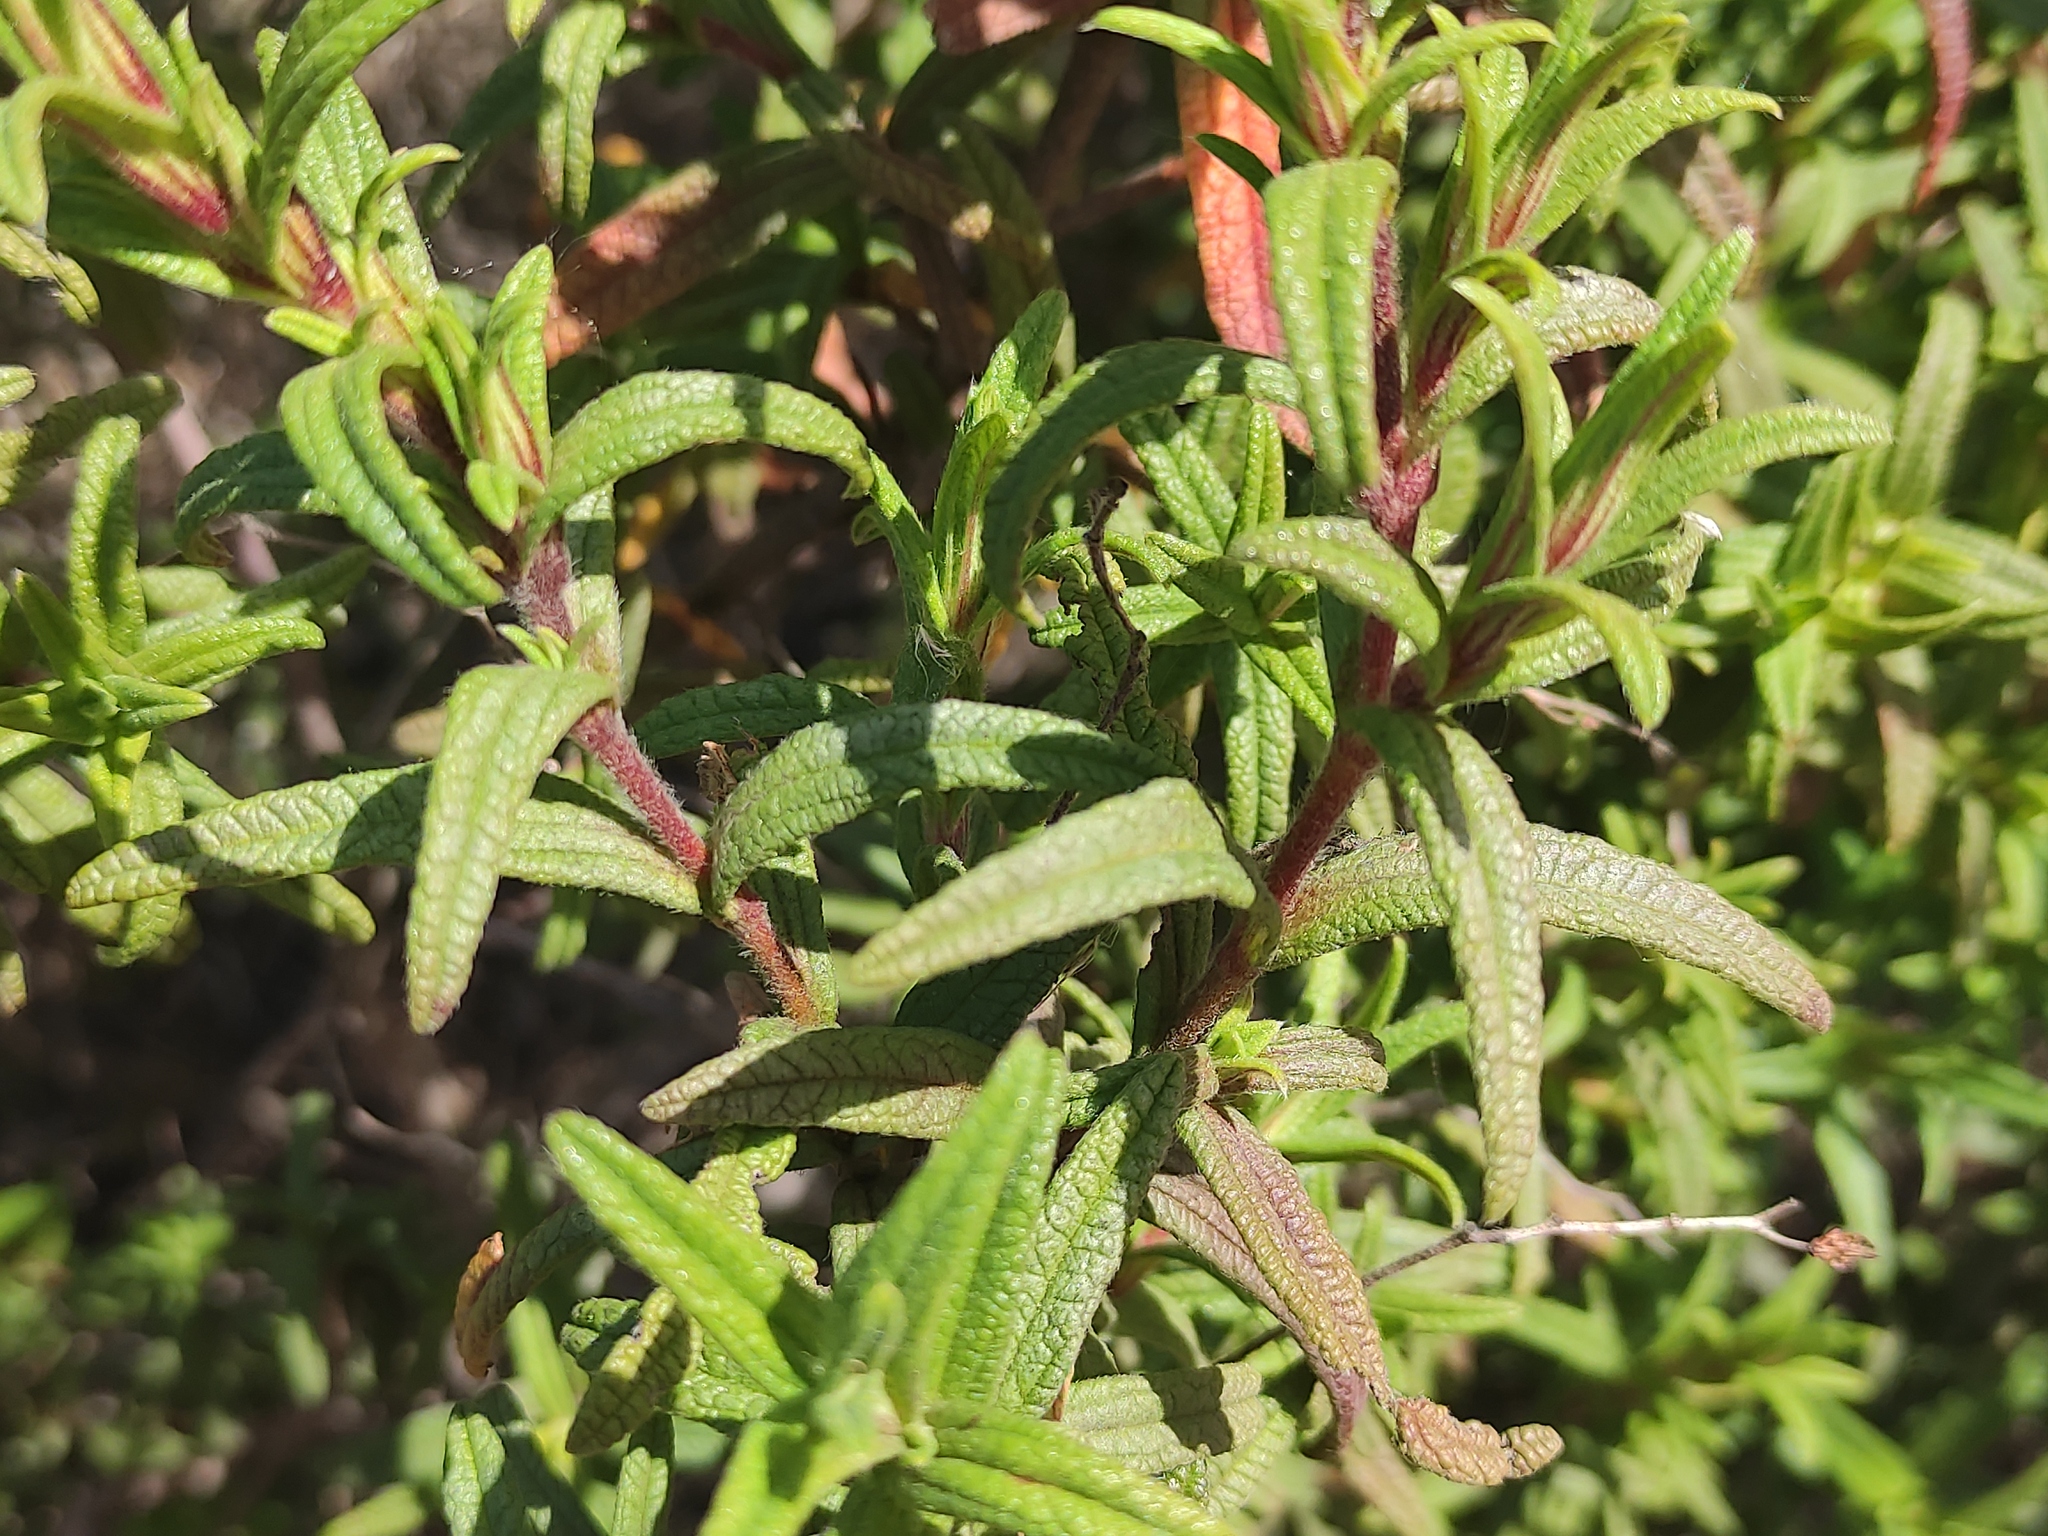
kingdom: Plantae
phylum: Tracheophyta
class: Magnoliopsida
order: Malvales
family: Cistaceae
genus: Cistus
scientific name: Cistus monspeliensis
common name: Montpelier cistus
